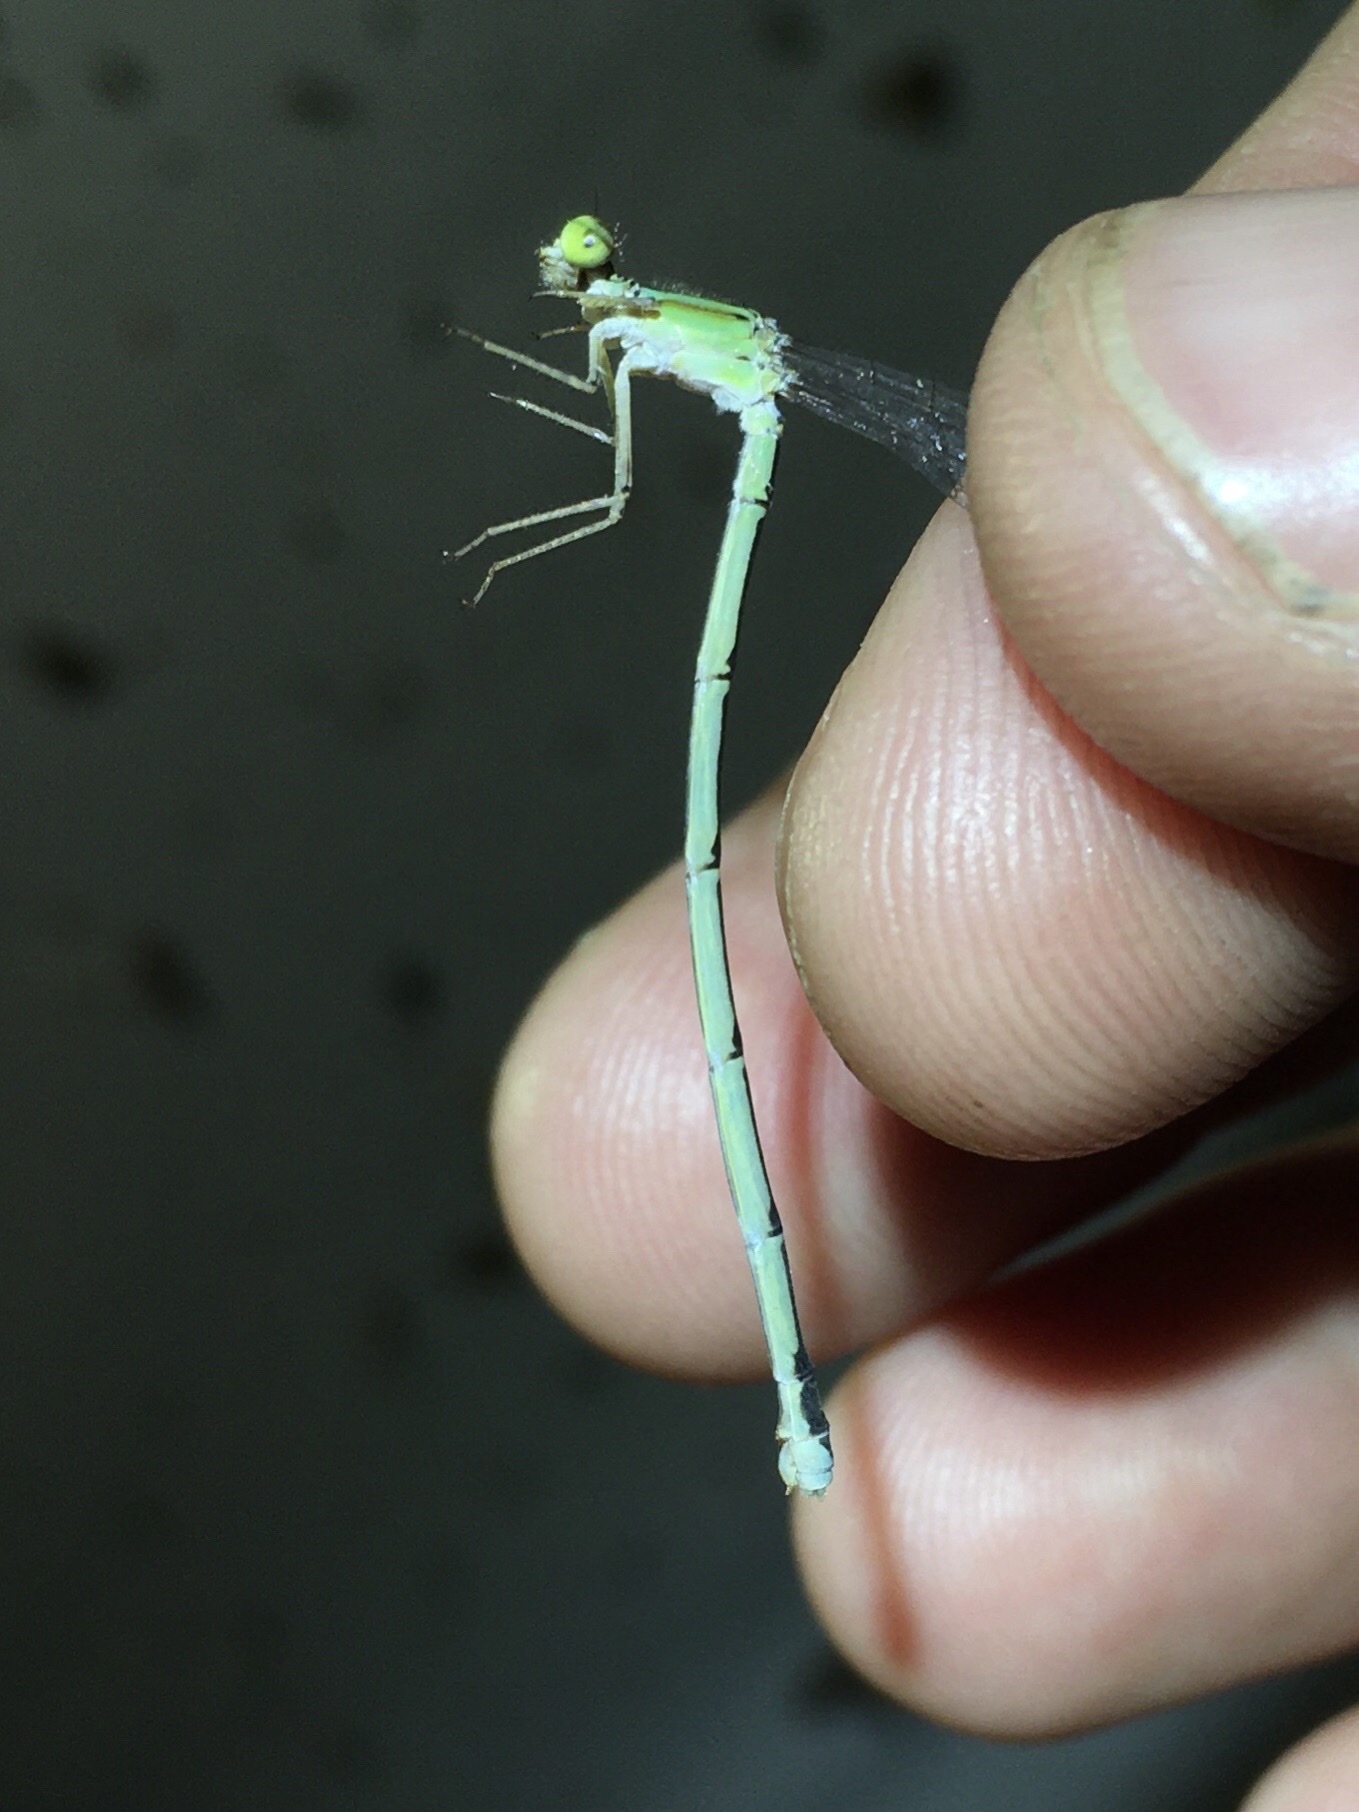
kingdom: Animalia
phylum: Arthropoda
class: Insecta
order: Odonata
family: Coenagrionidae
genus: Enallagma
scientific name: Enallagma vesperum
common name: Vesper bluet
